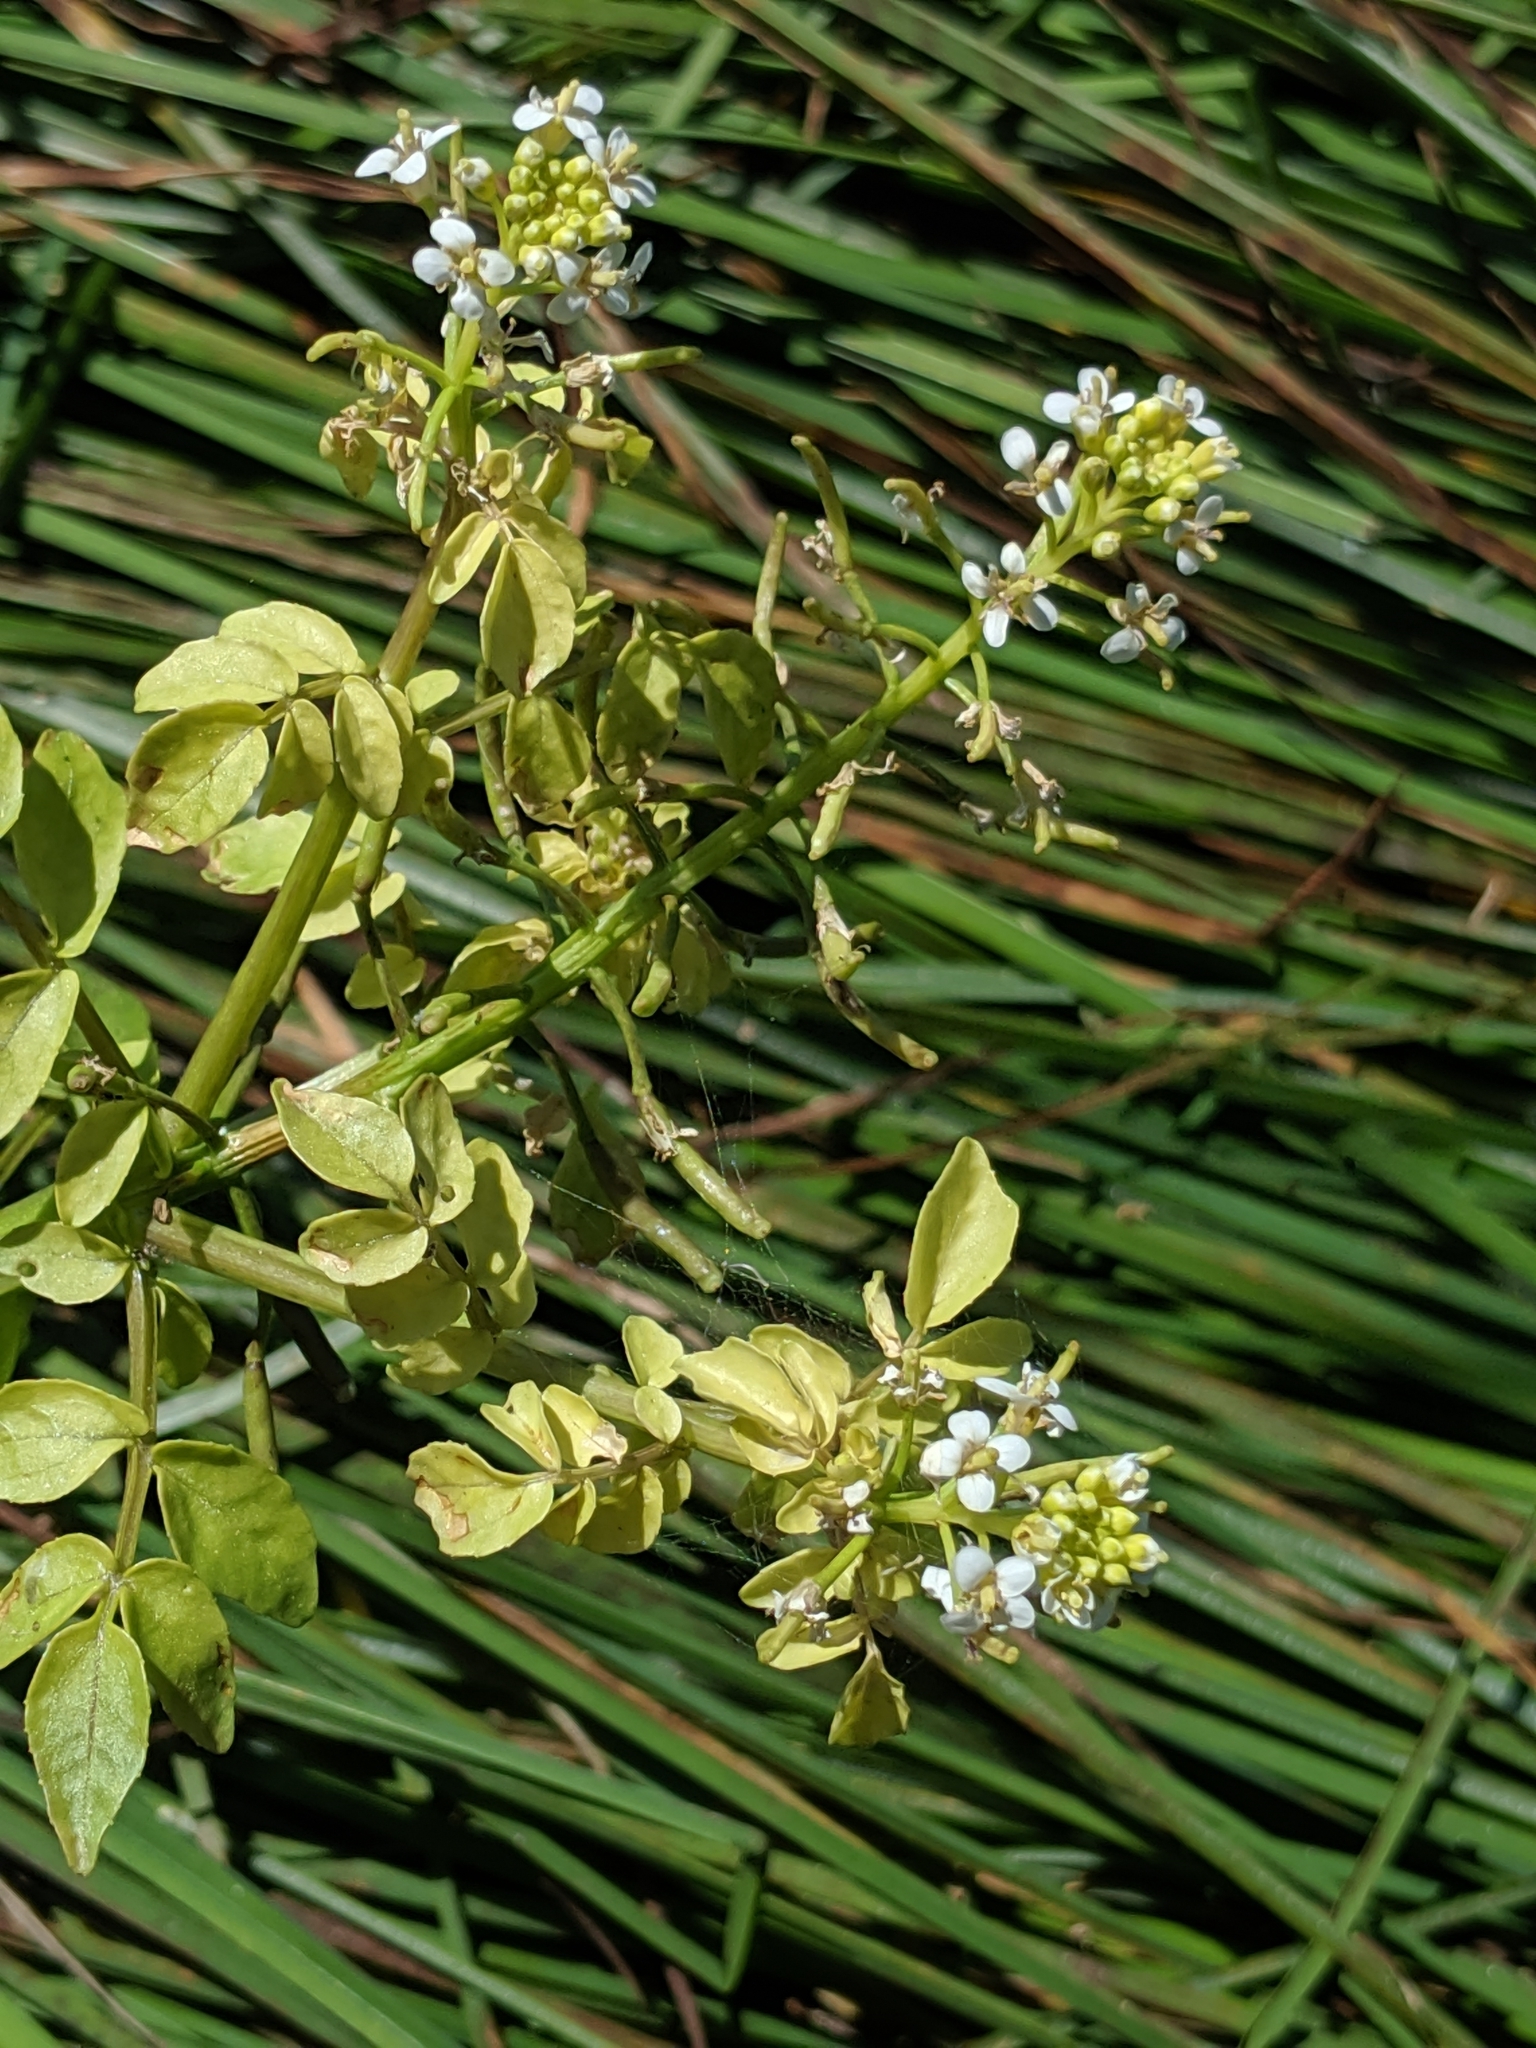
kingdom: Plantae
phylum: Tracheophyta
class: Magnoliopsida
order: Brassicales
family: Brassicaceae
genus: Nasturtium
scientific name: Nasturtium officinale
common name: Watercress
